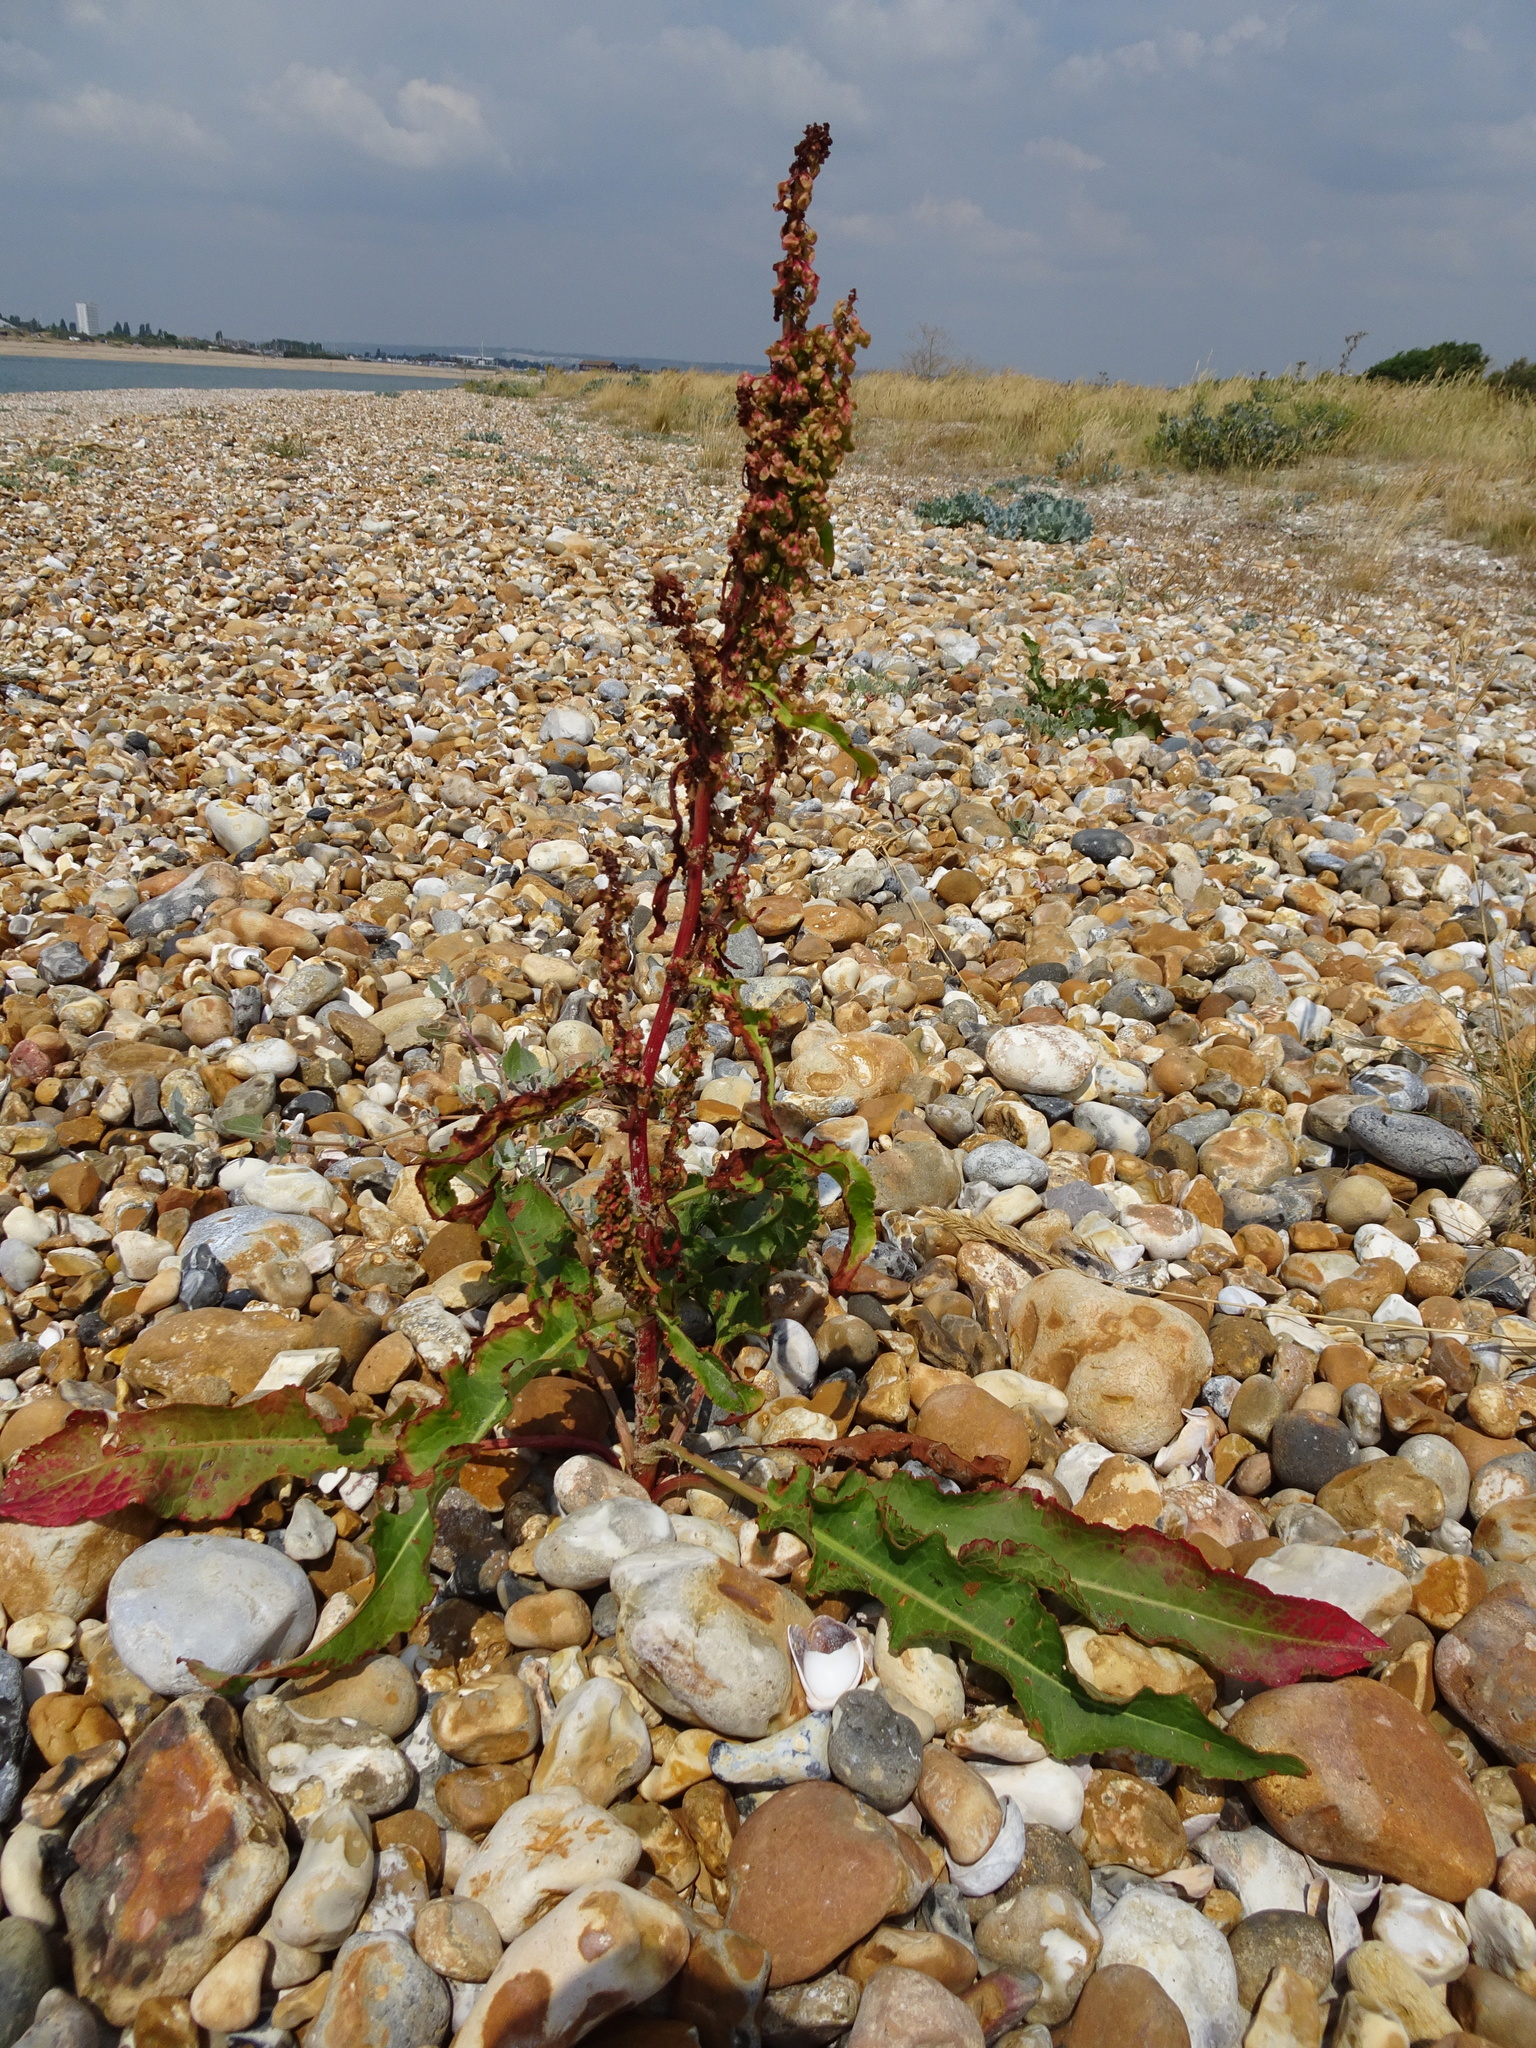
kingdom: Plantae
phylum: Tracheophyta
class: Magnoliopsida
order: Caryophyllales
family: Polygonaceae
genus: Rumex
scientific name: Rumex crispus
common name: Curled dock
